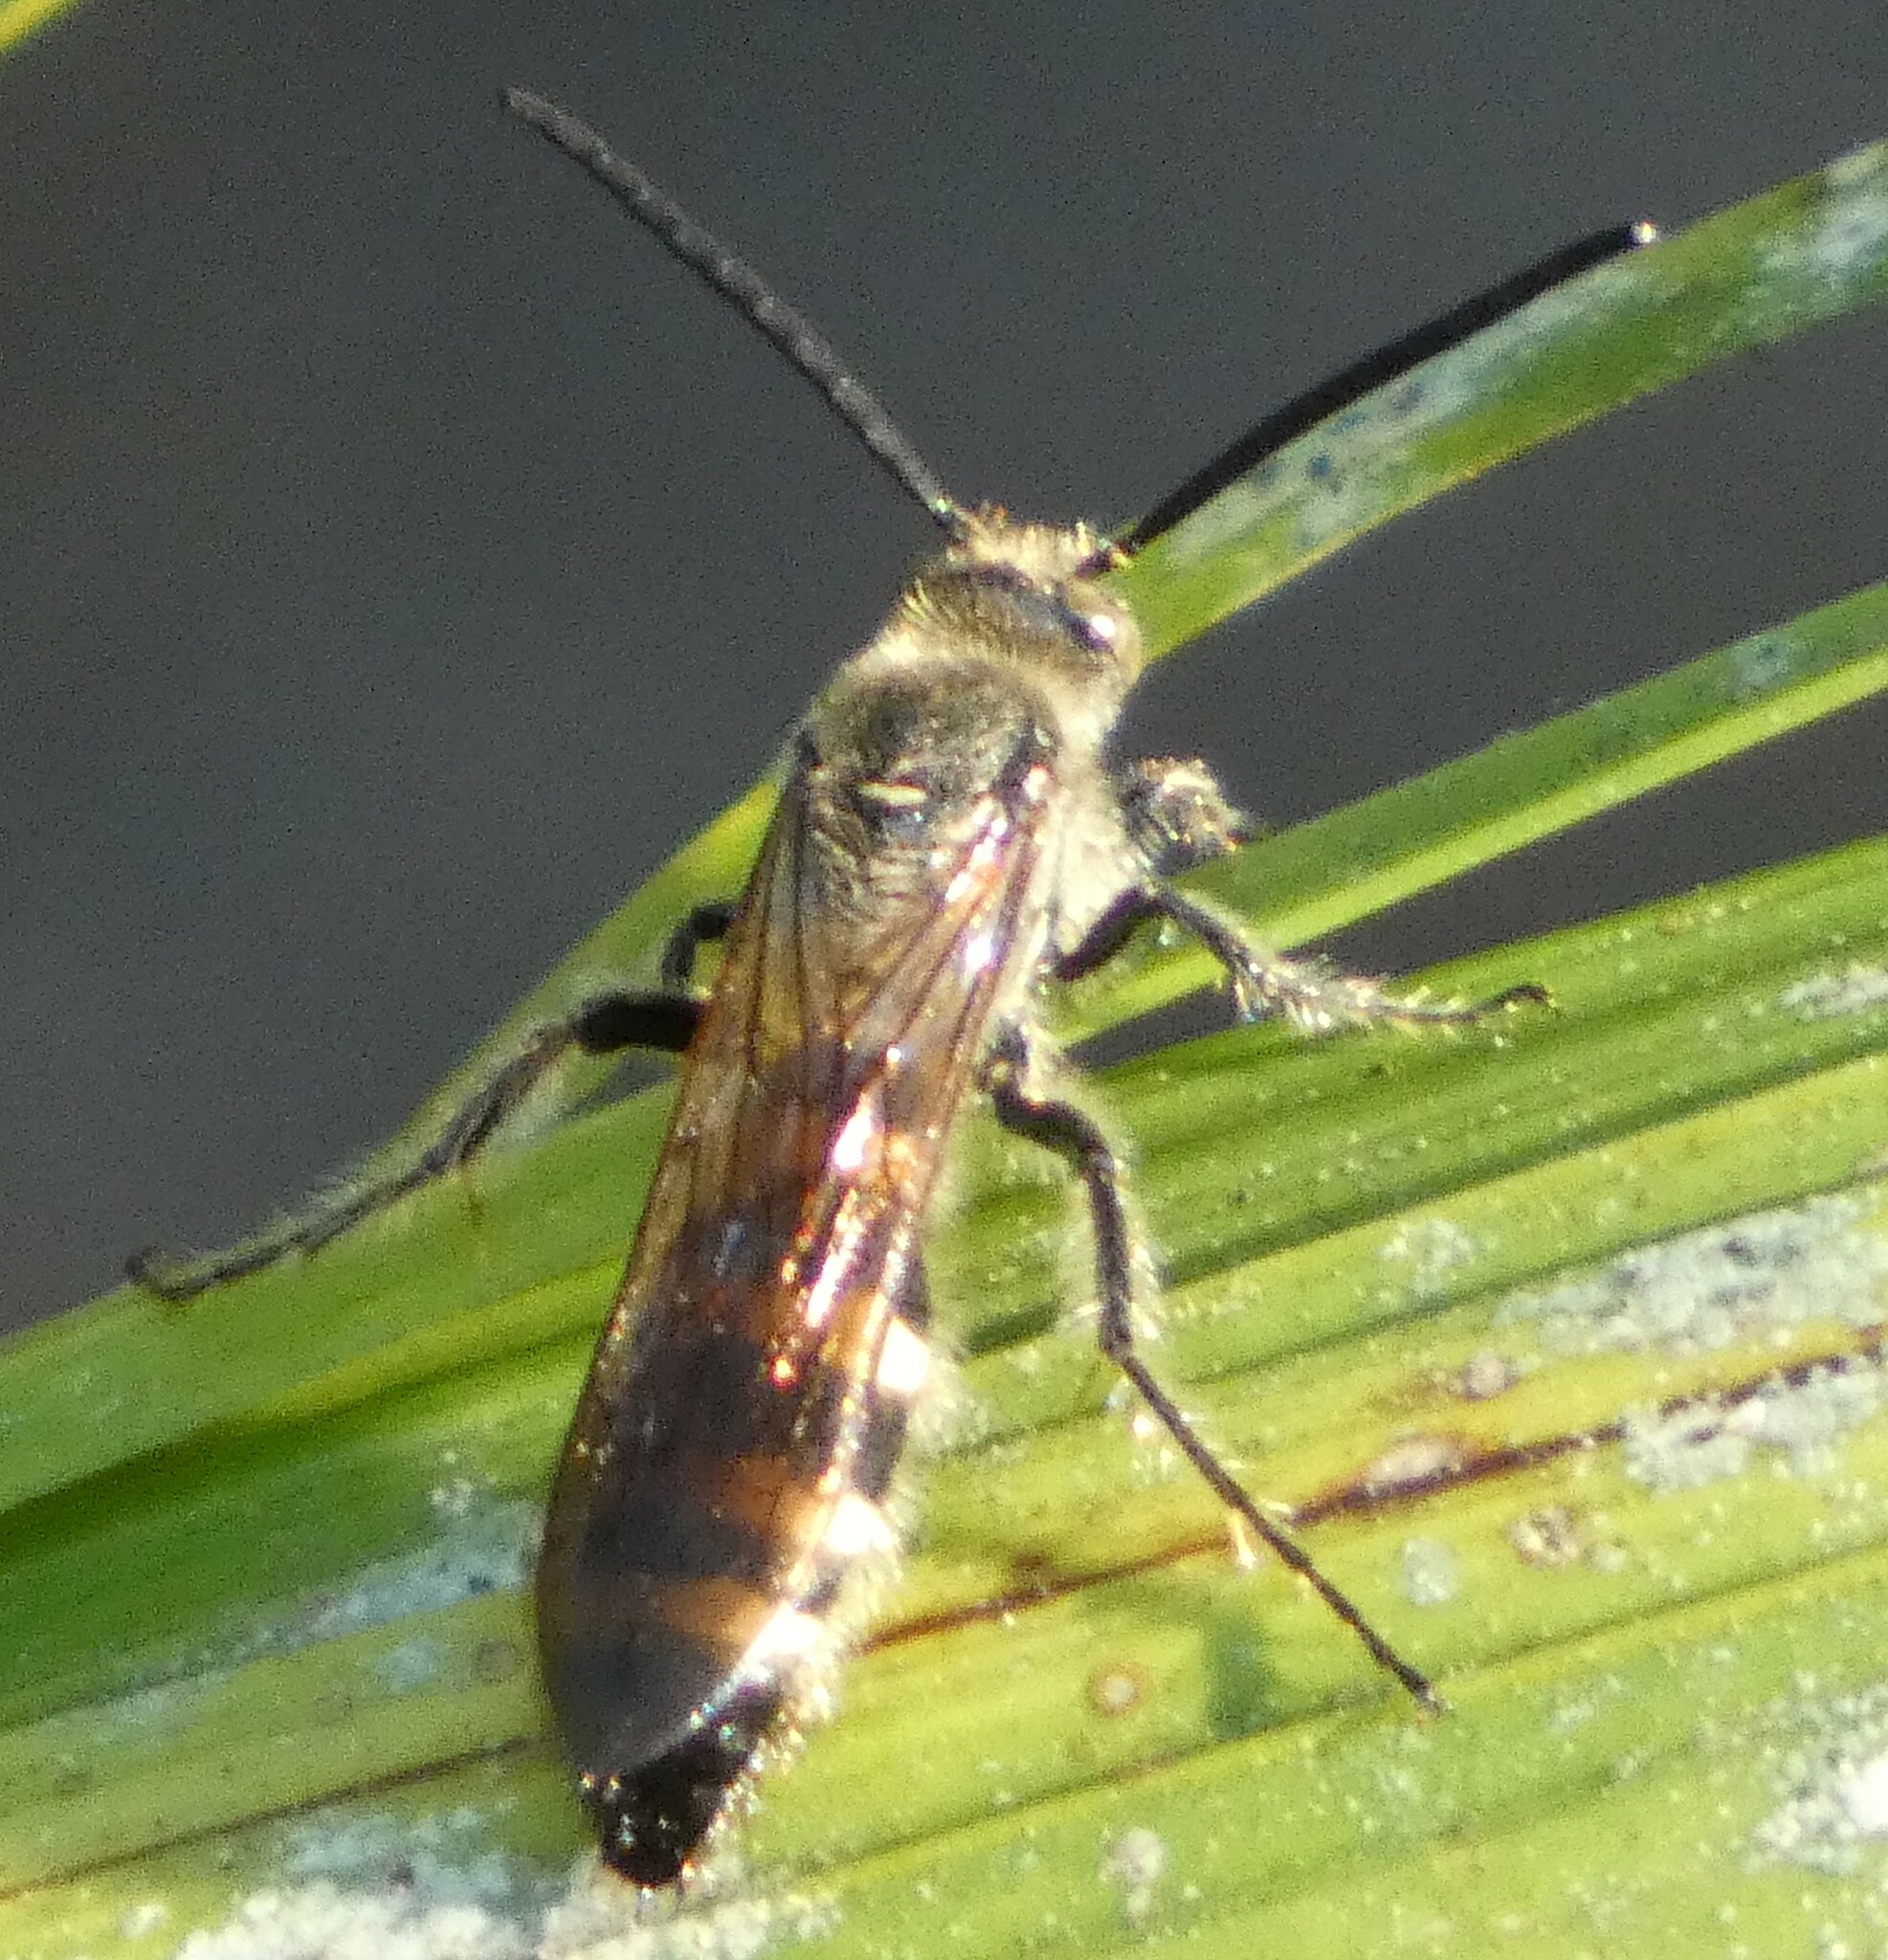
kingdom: Animalia
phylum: Arthropoda
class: Insecta
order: Hymenoptera
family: Scoliidae
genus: Dielis
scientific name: Dielis
